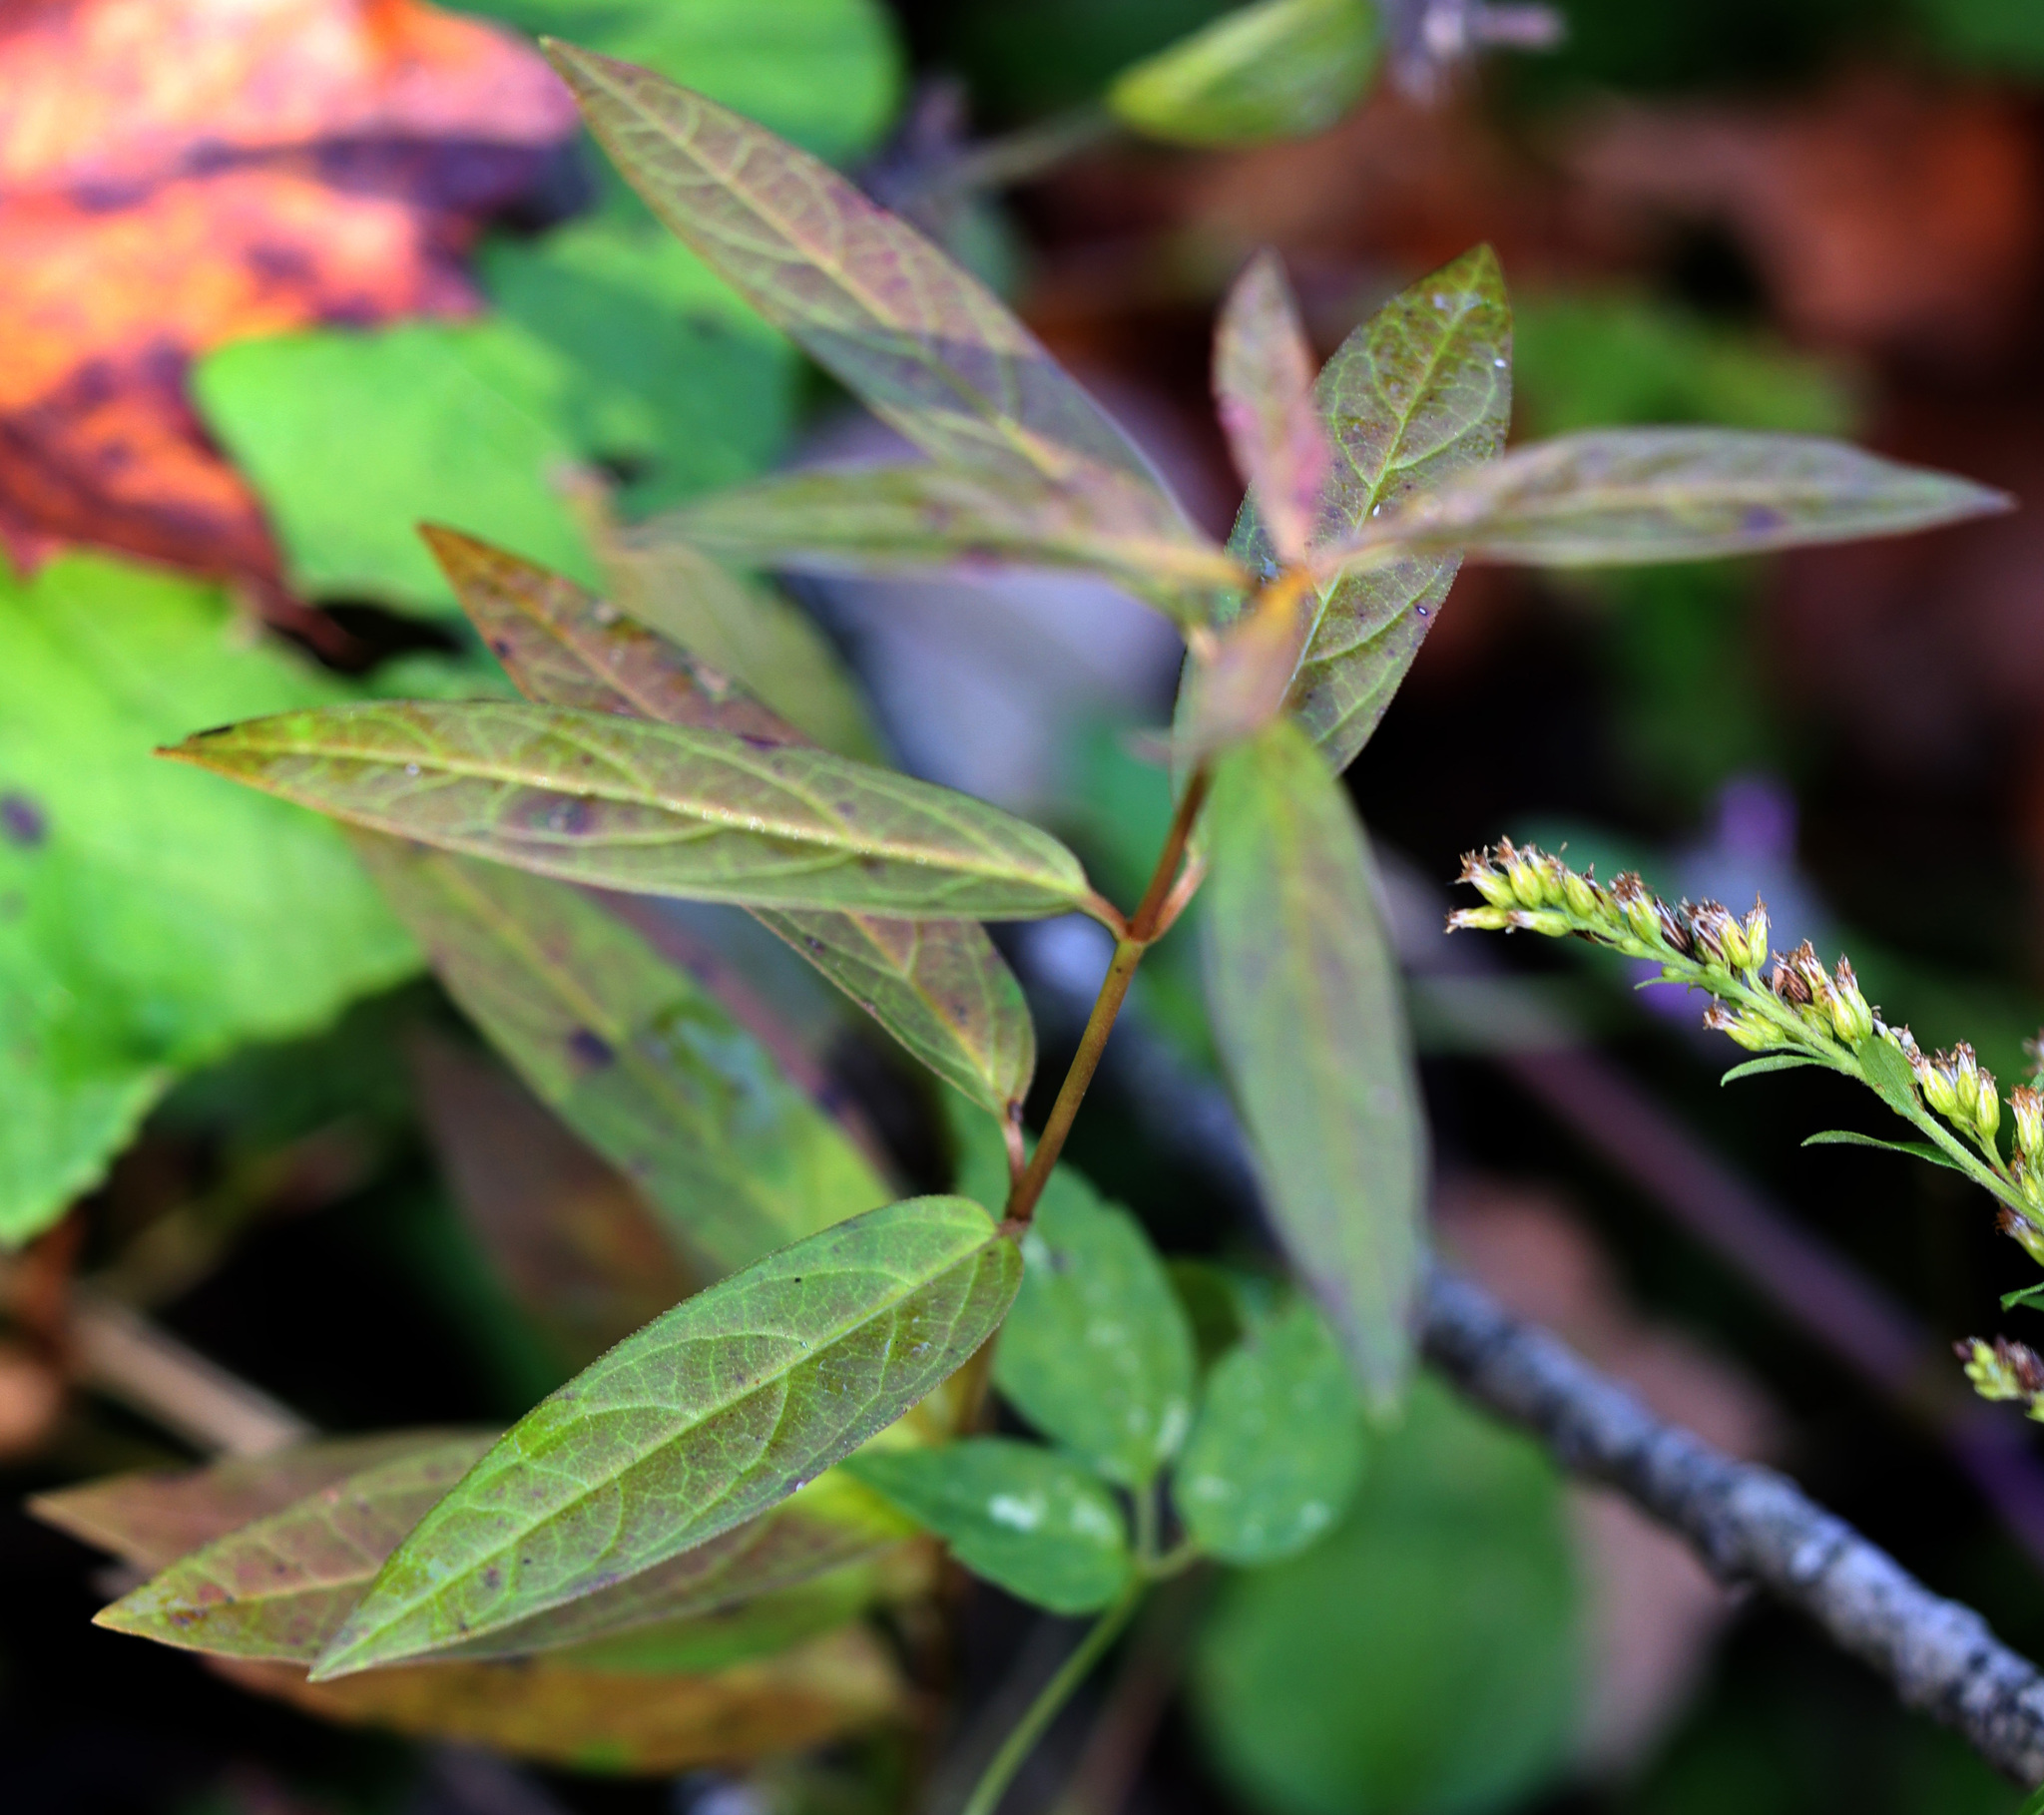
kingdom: Plantae
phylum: Tracheophyta
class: Magnoliopsida
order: Gentianales
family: Apocynaceae
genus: Asclepias
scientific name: Asclepias incarnata
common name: Swamp milkweed
